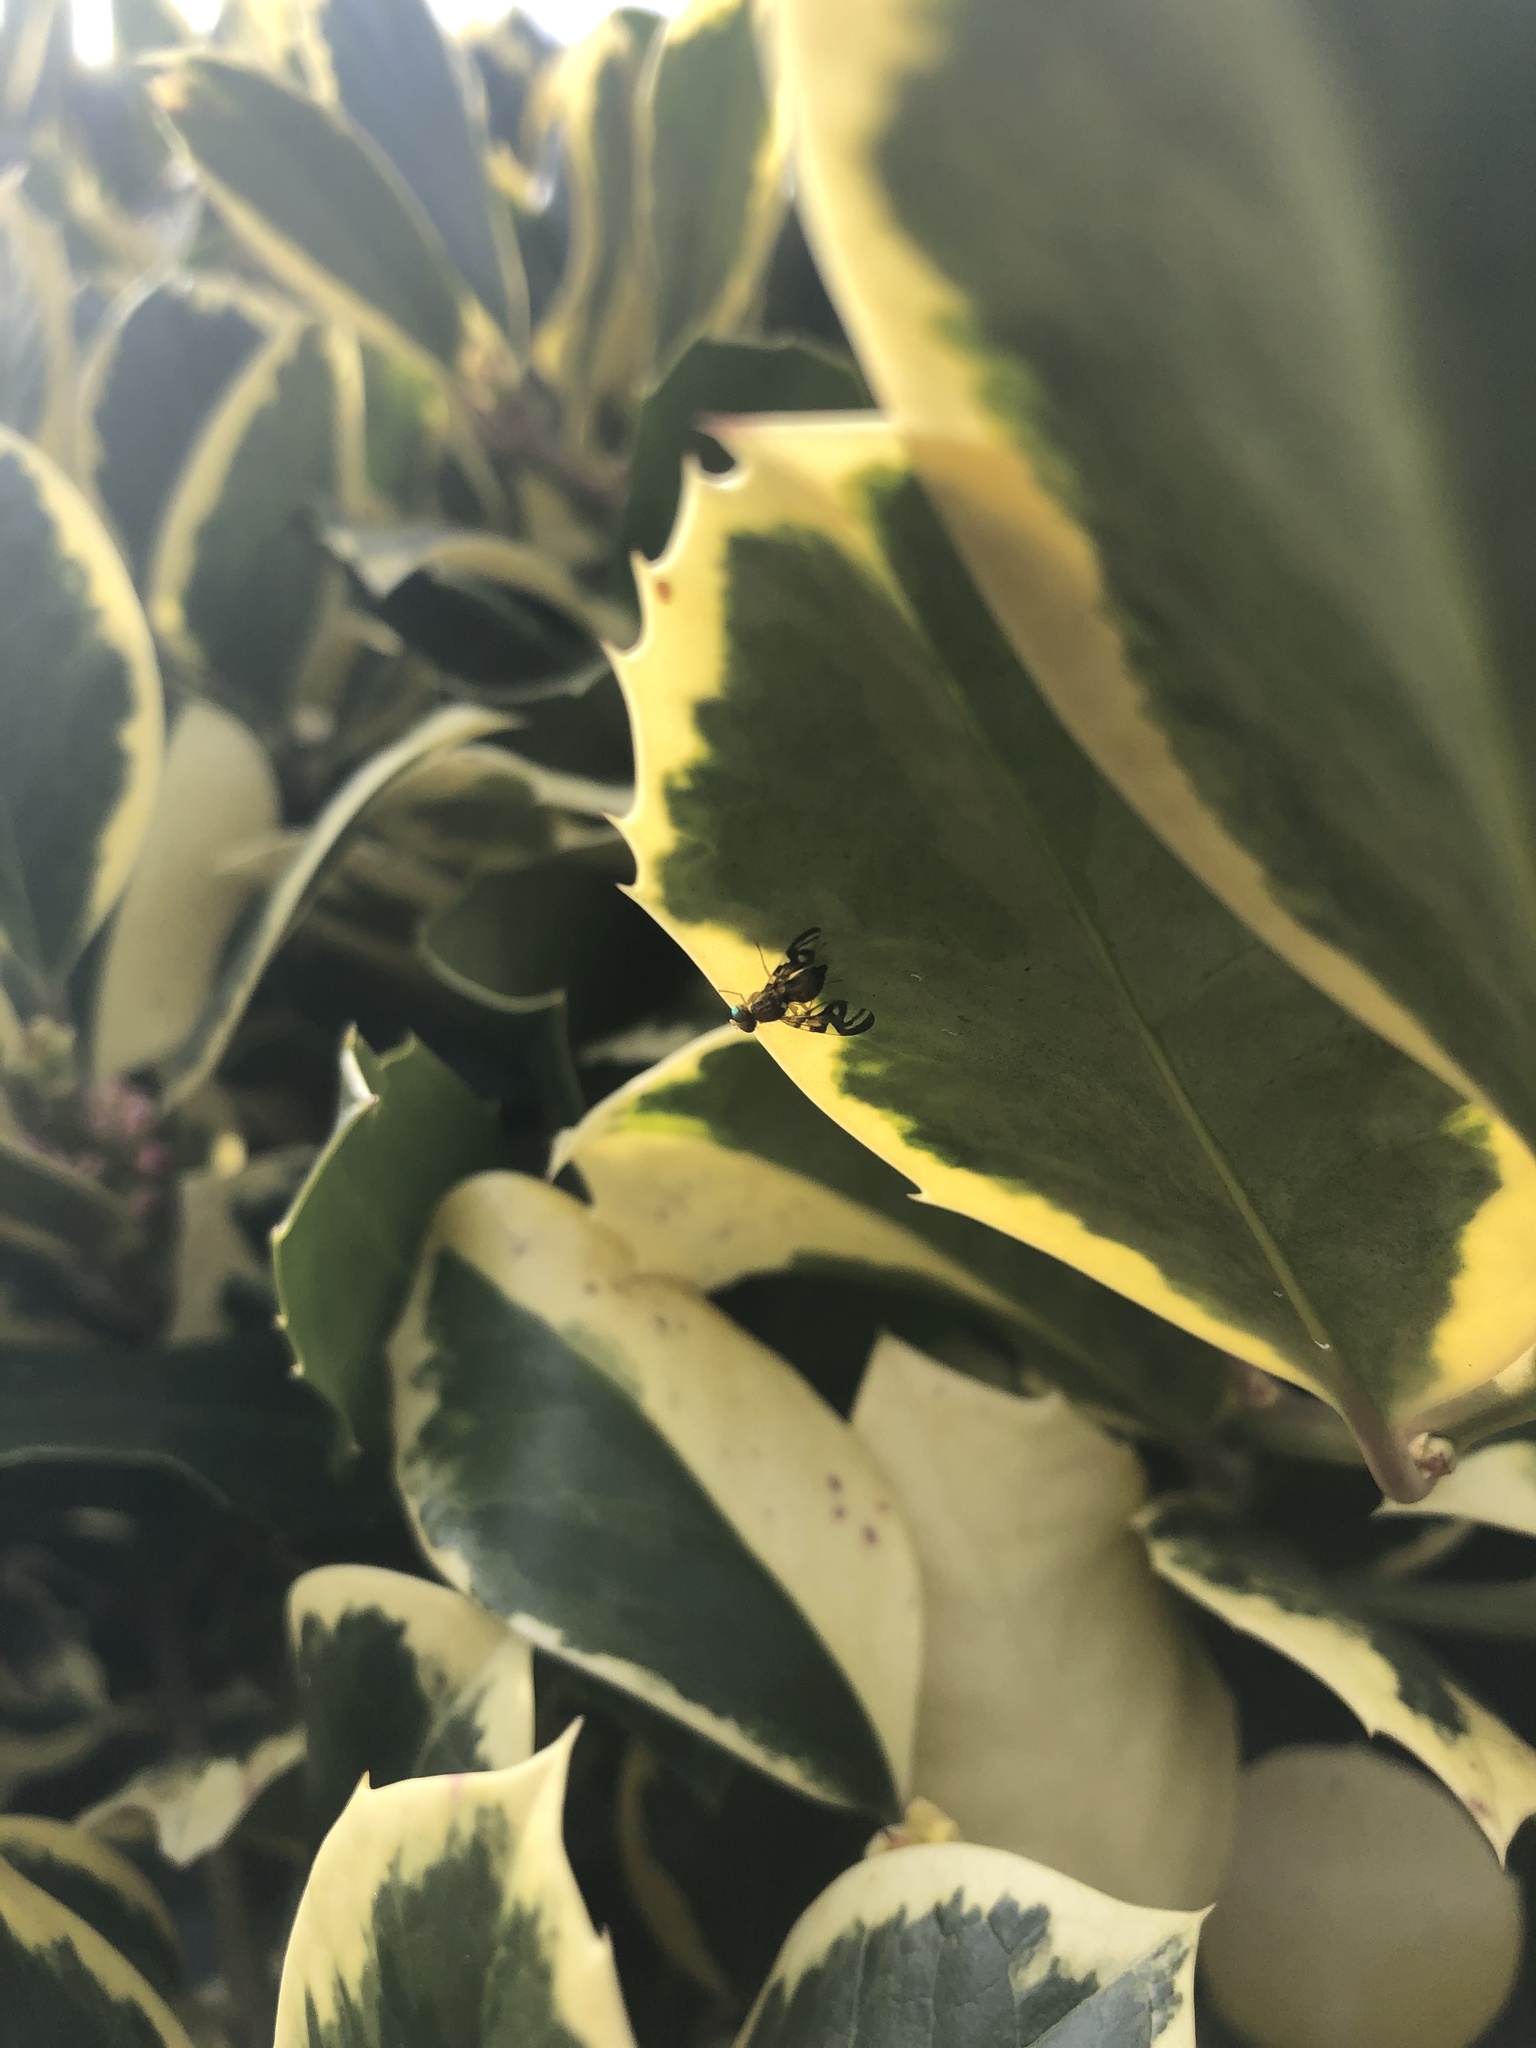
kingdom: Animalia
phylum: Arthropoda
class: Insecta
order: Diptera
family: Tephritidae
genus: Euleia
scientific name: Euleia heraclei
